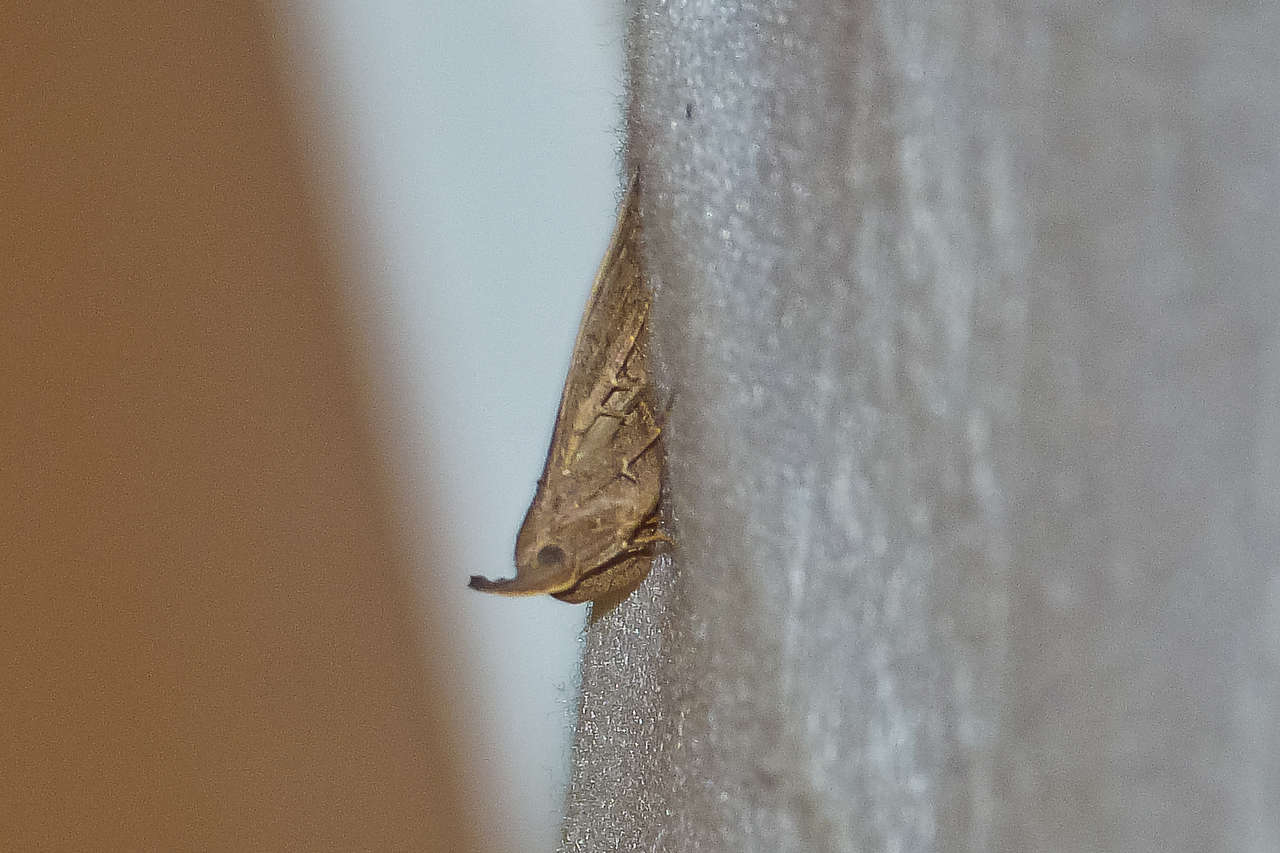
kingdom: Animalia
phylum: Arthropoda
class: Insecta
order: Lepidoptera
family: Erebidae
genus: Simplicia
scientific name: Simplicia armatalis
